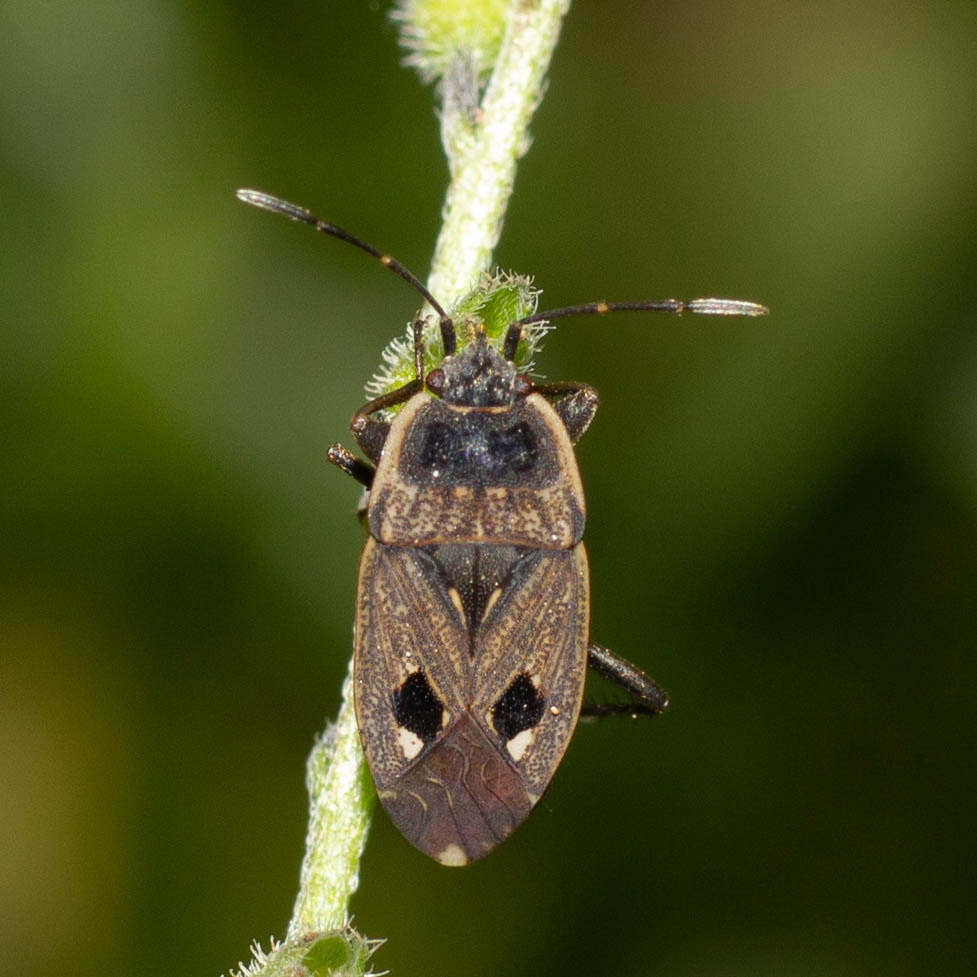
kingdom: Animalia
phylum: Arthropoda
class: Insecta
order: Hemiptera
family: Rhyparochromidae
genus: Graptopeltus
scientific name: Graptopeltus lynceus
